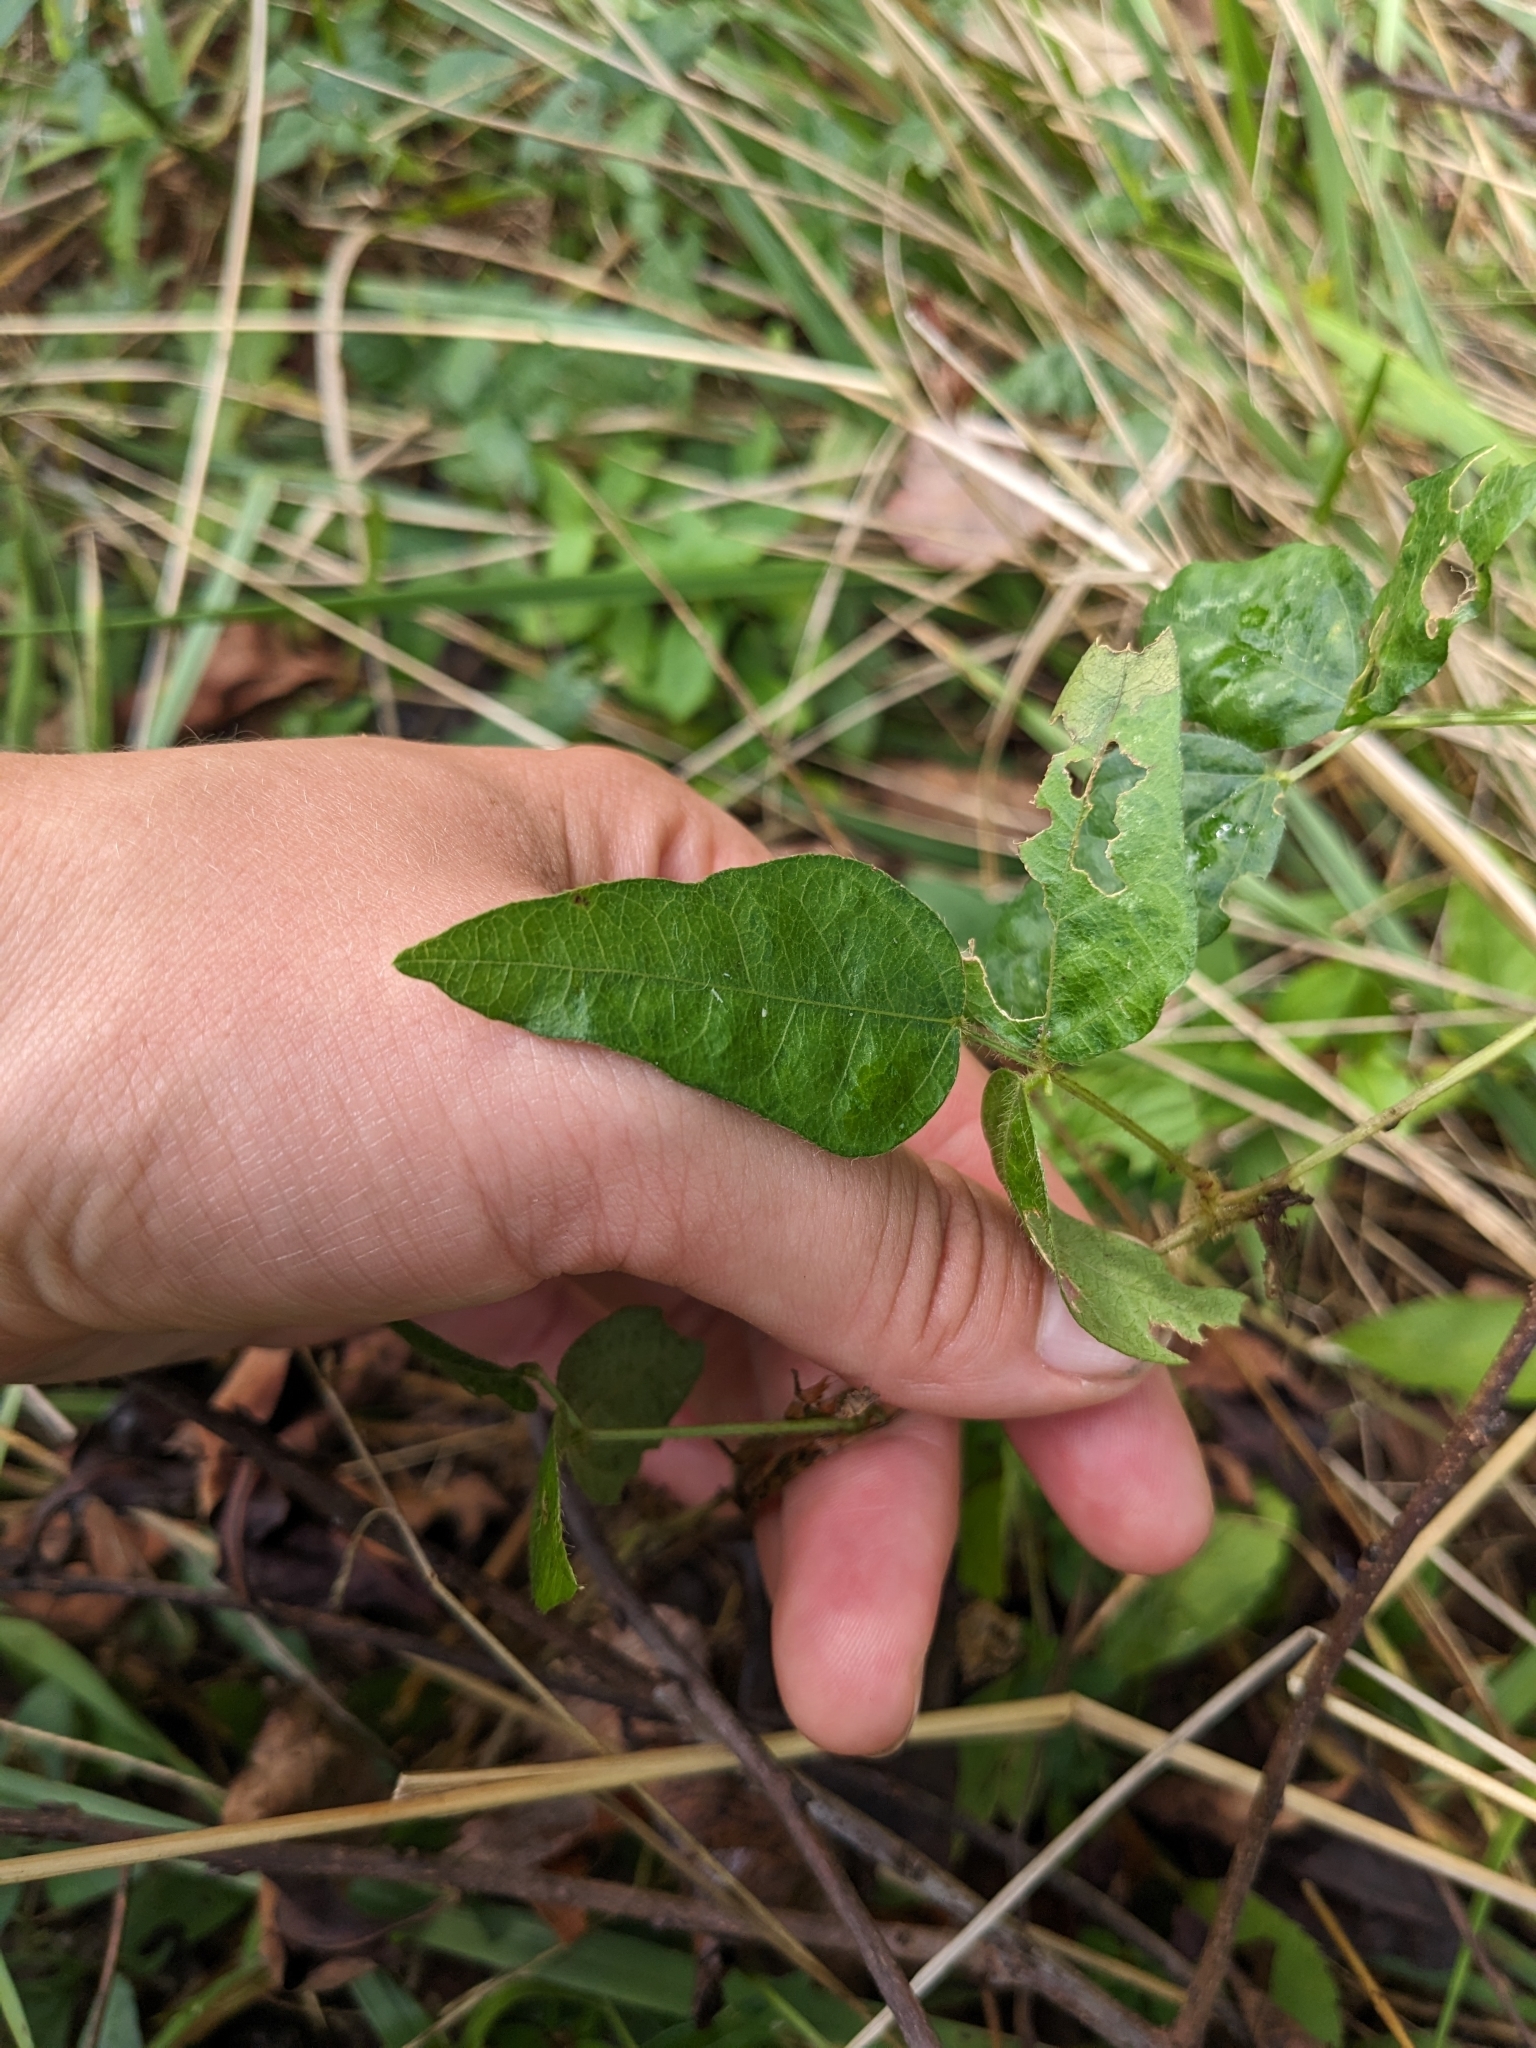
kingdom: Plantae
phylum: Tracheophyta
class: Magnoliopsida
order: Fabales
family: Fabaceae
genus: Strophostyles
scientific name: Strophostyles umbellata
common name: Perennial wild bean
